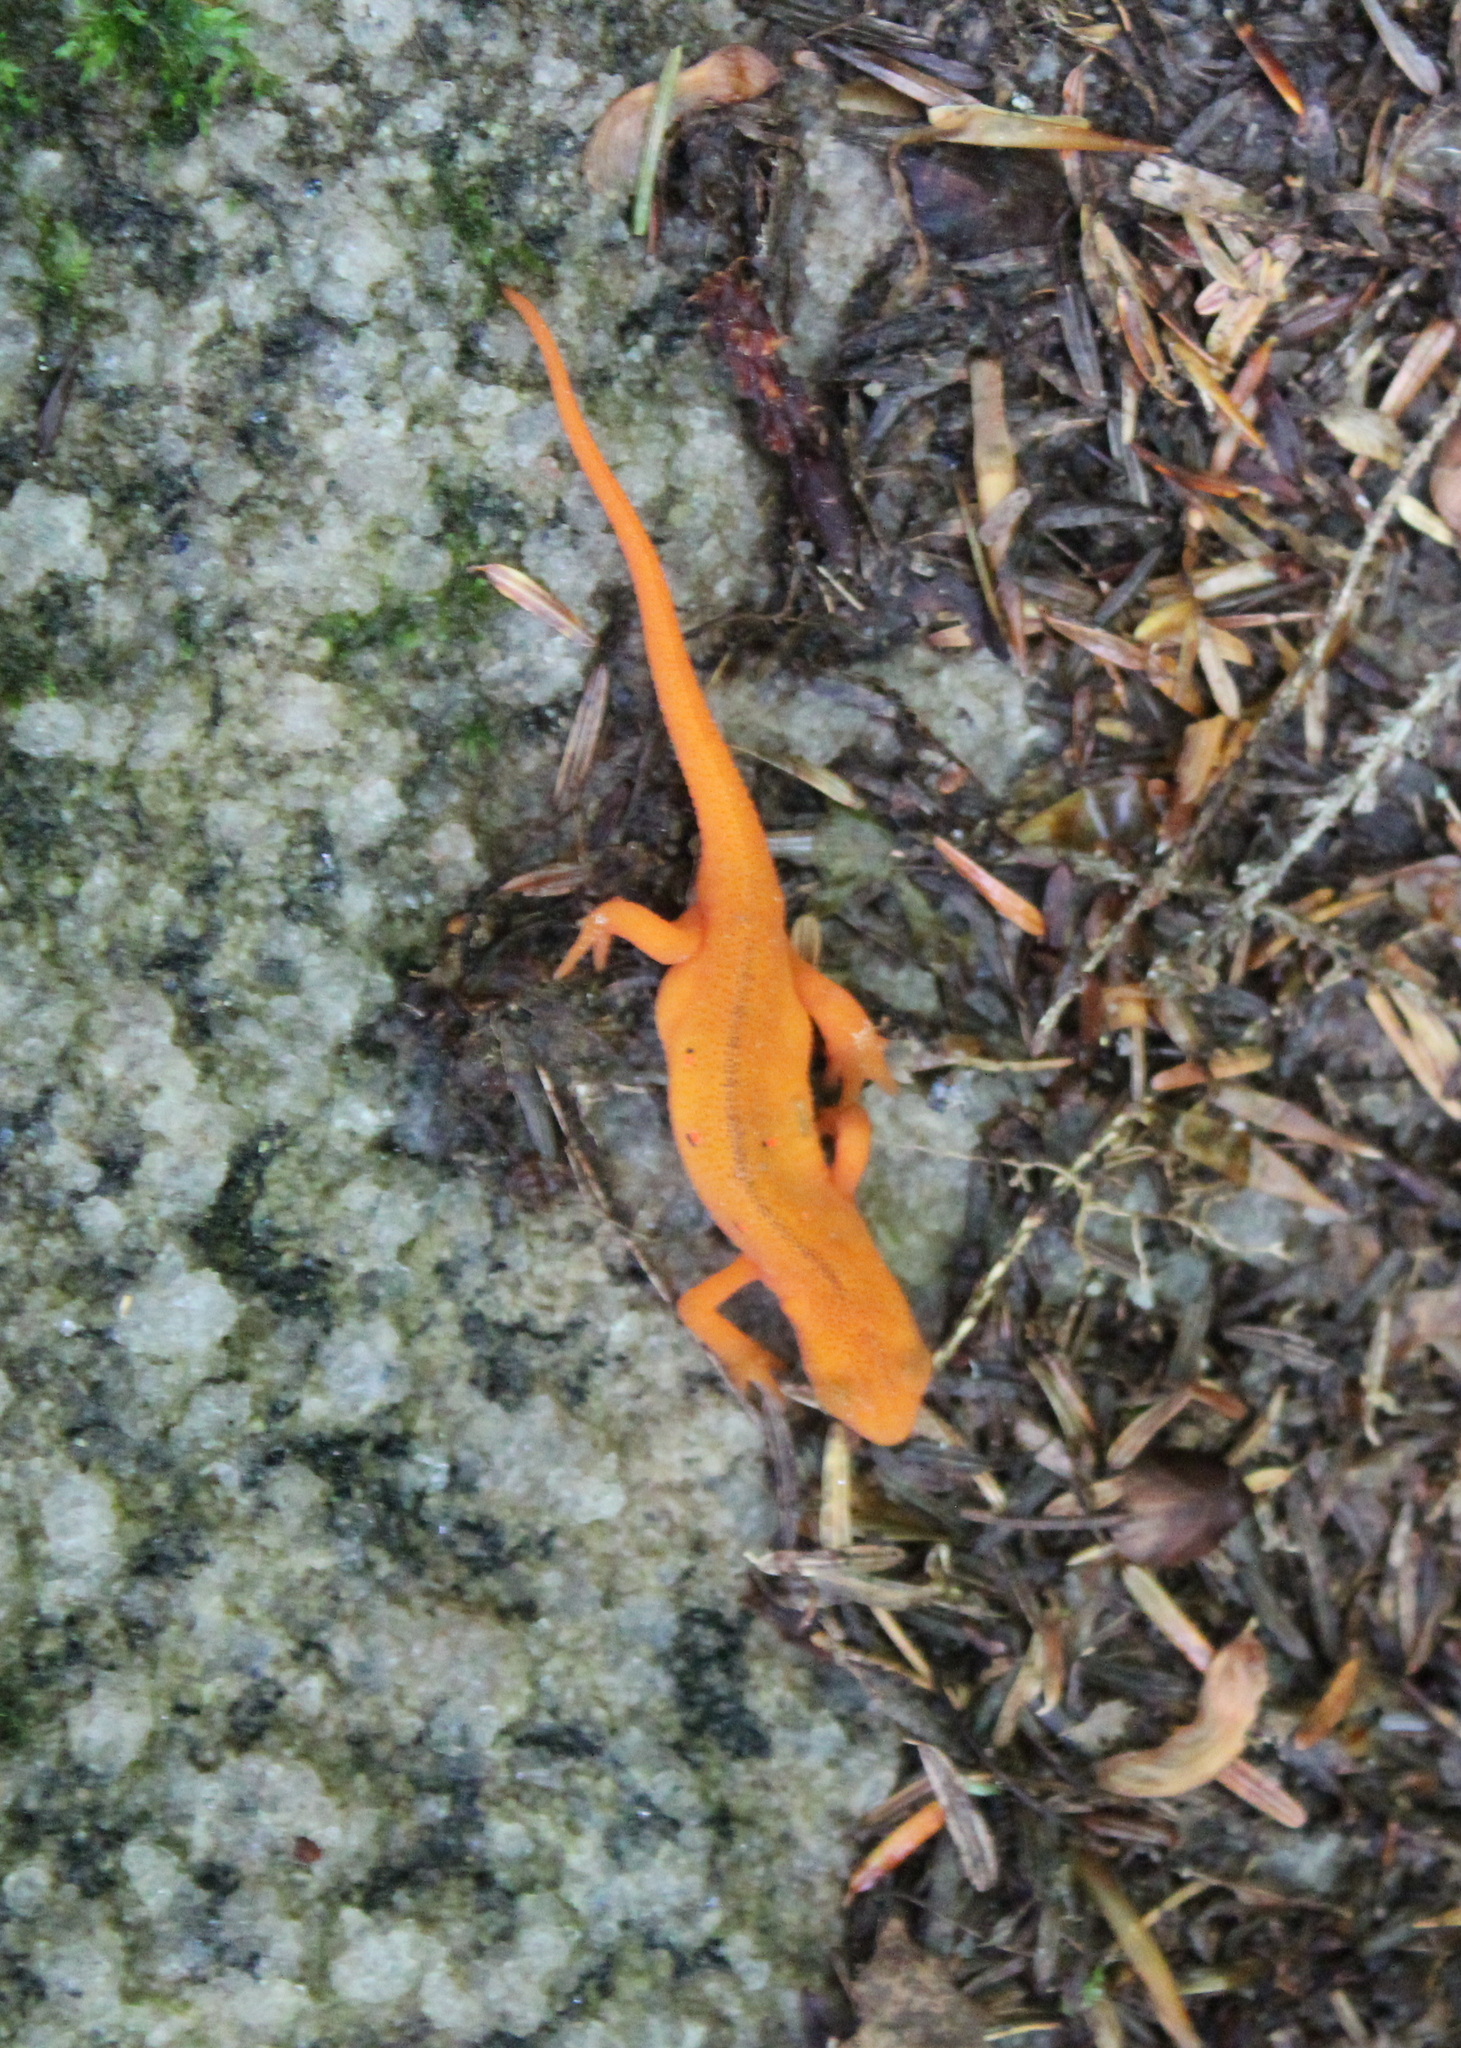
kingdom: Animalia
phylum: Chordata
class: Amphibia
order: Caudata
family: Salamandridae
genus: Notophthalmus
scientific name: Notophthalmus viridescens
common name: Eastern newt
